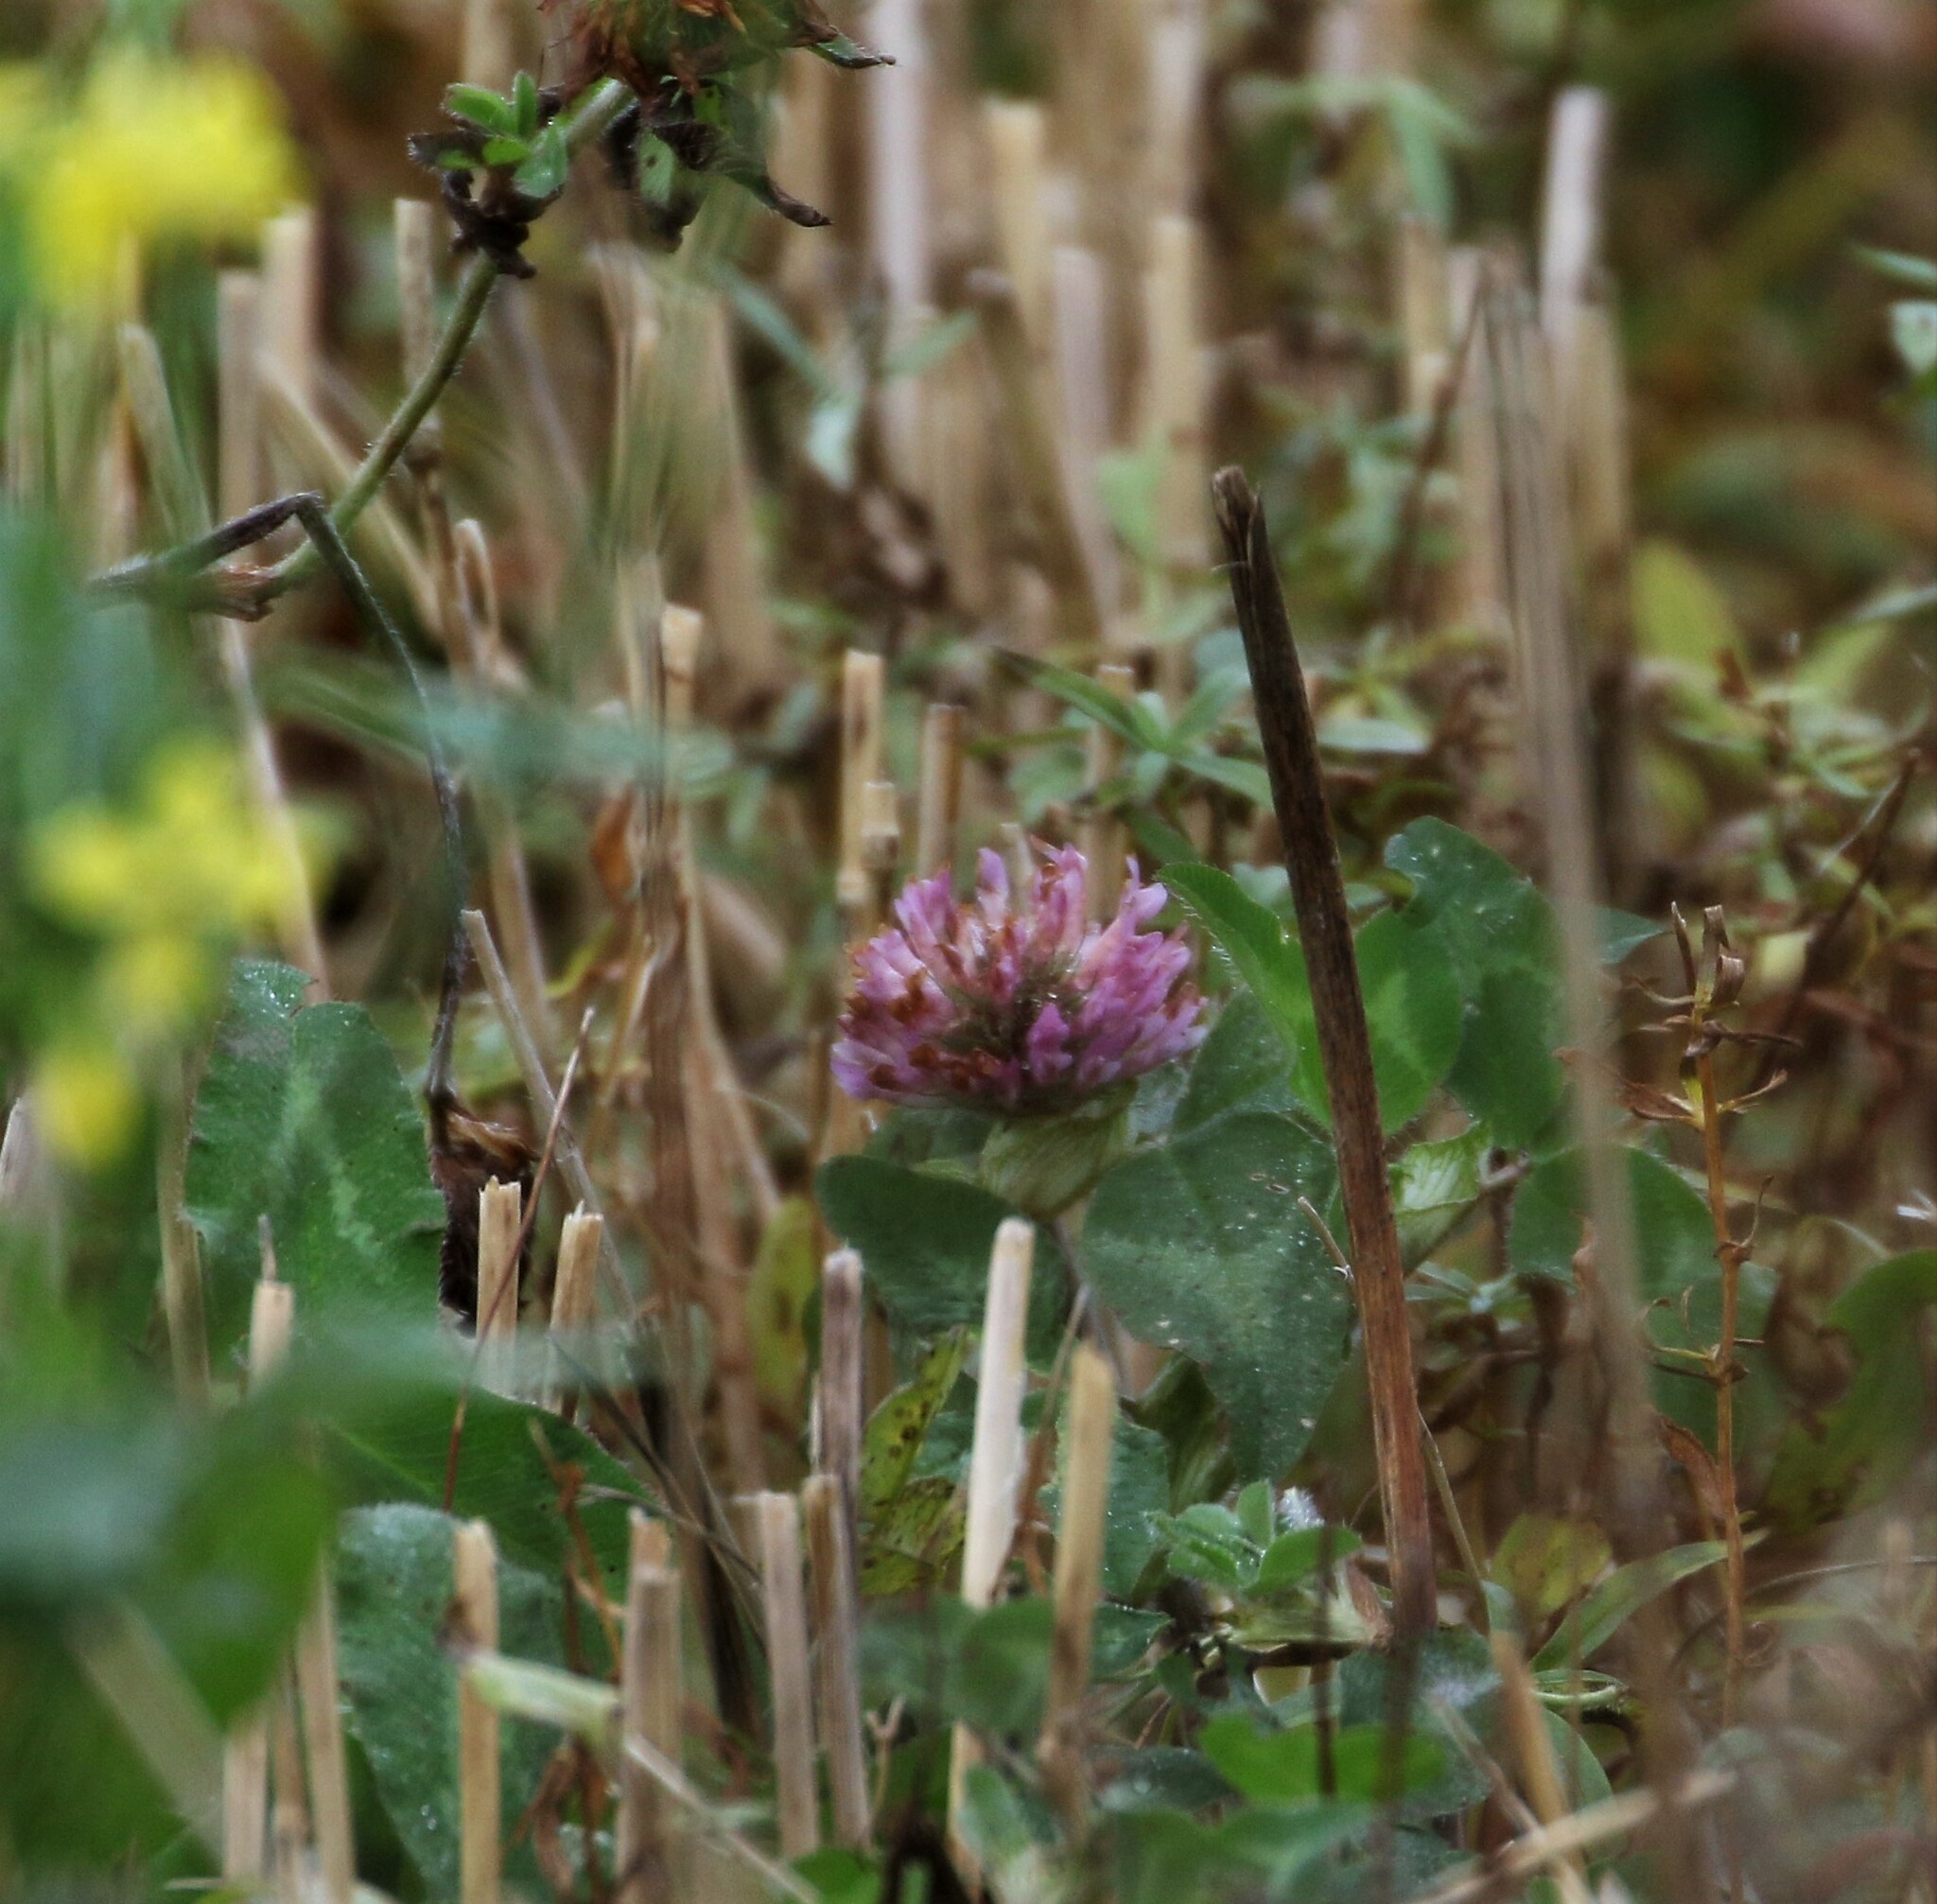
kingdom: Plantae
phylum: Tracheophyta
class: Magnoliopsida
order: Fabales
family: Fabaceae
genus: Trifolium
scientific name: Trifolium pratense
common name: Red clover
